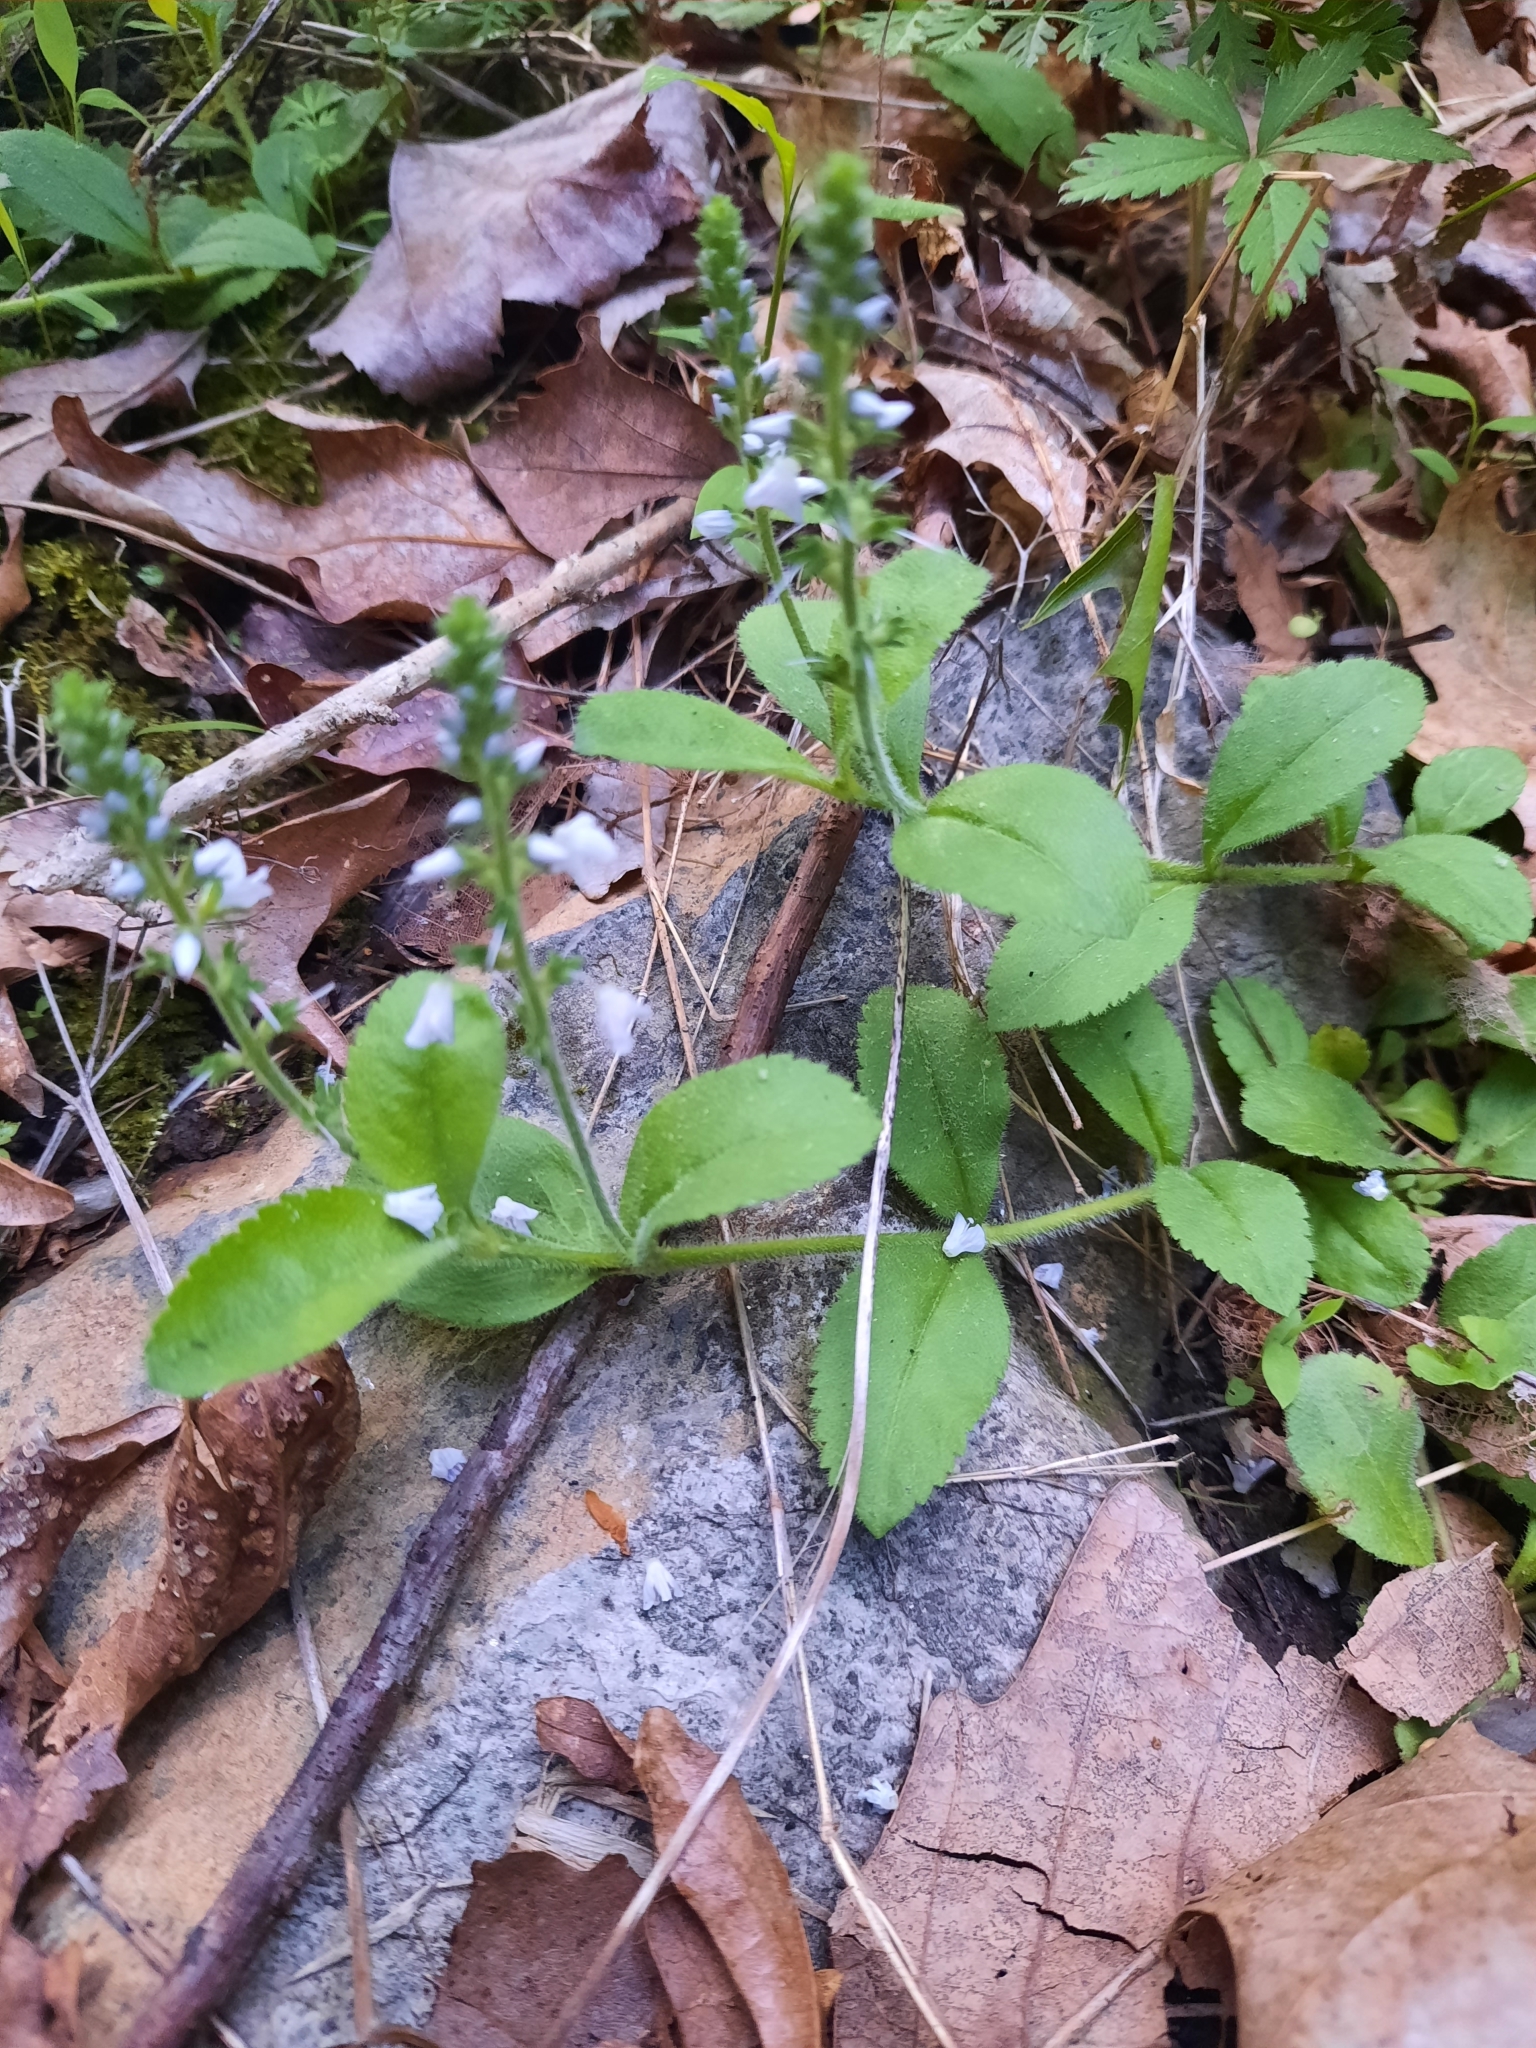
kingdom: Plantae
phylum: Tracheophyta
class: Magnoliopsida
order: Lamiales
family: Plantaginaceae
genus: Veronica
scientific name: Veronica officinalis
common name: Common speedwell
